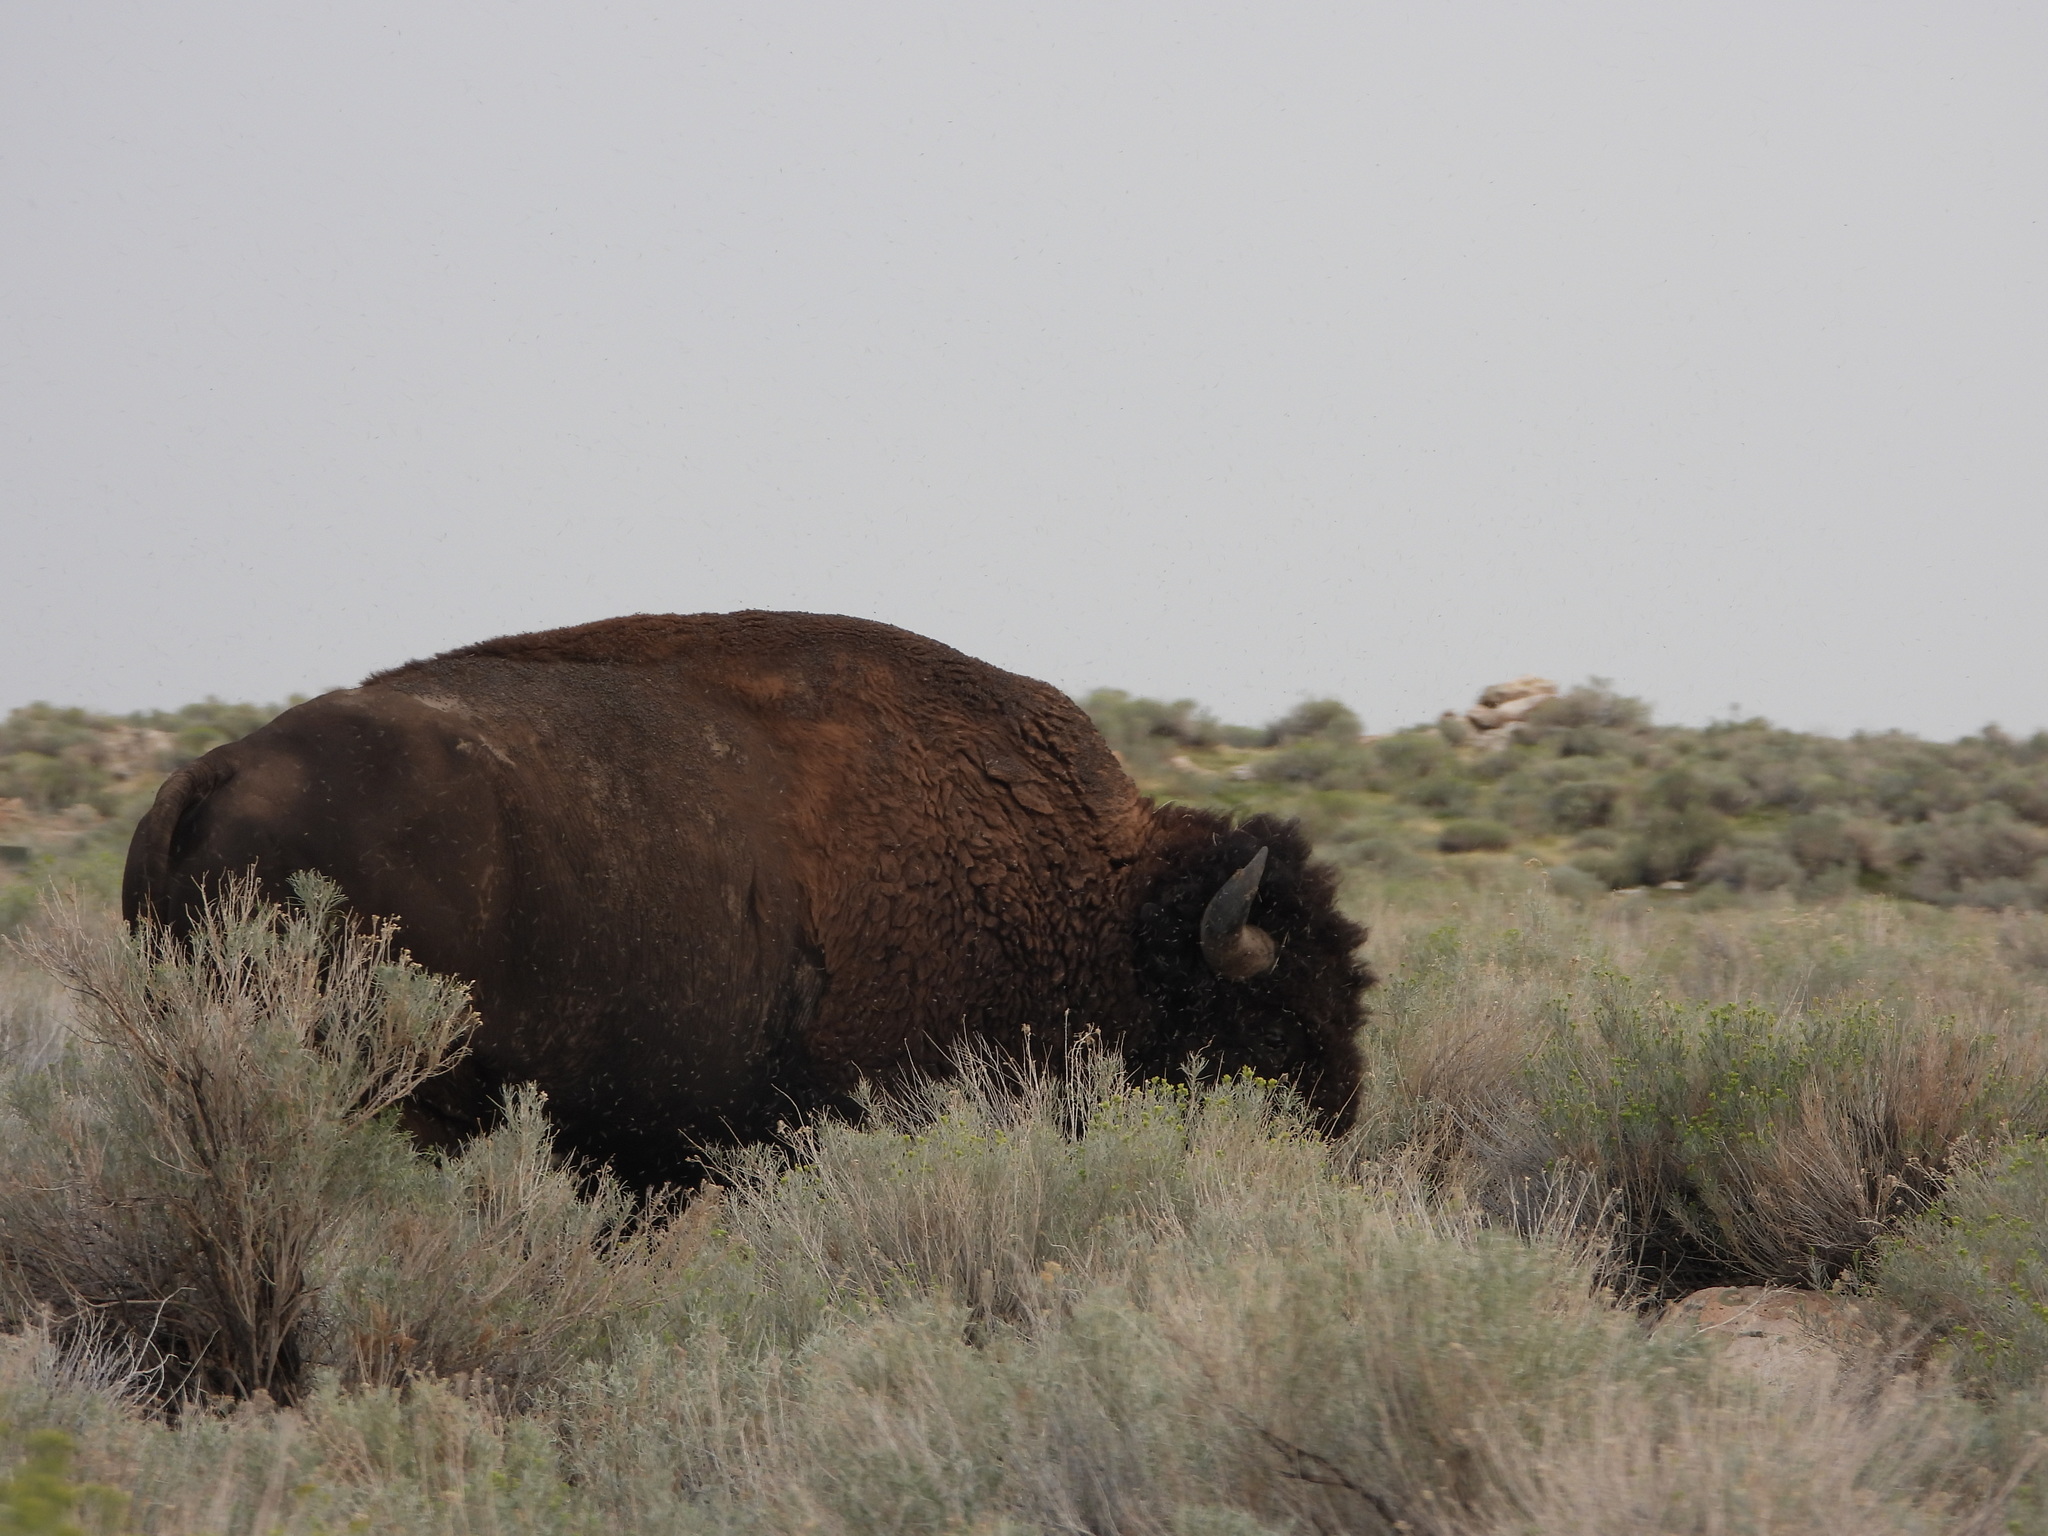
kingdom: Animalia
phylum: Chordata
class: Mammalia
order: Artiodactyla
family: Bovidae
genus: Bison
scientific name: Bison bison
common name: American bison
